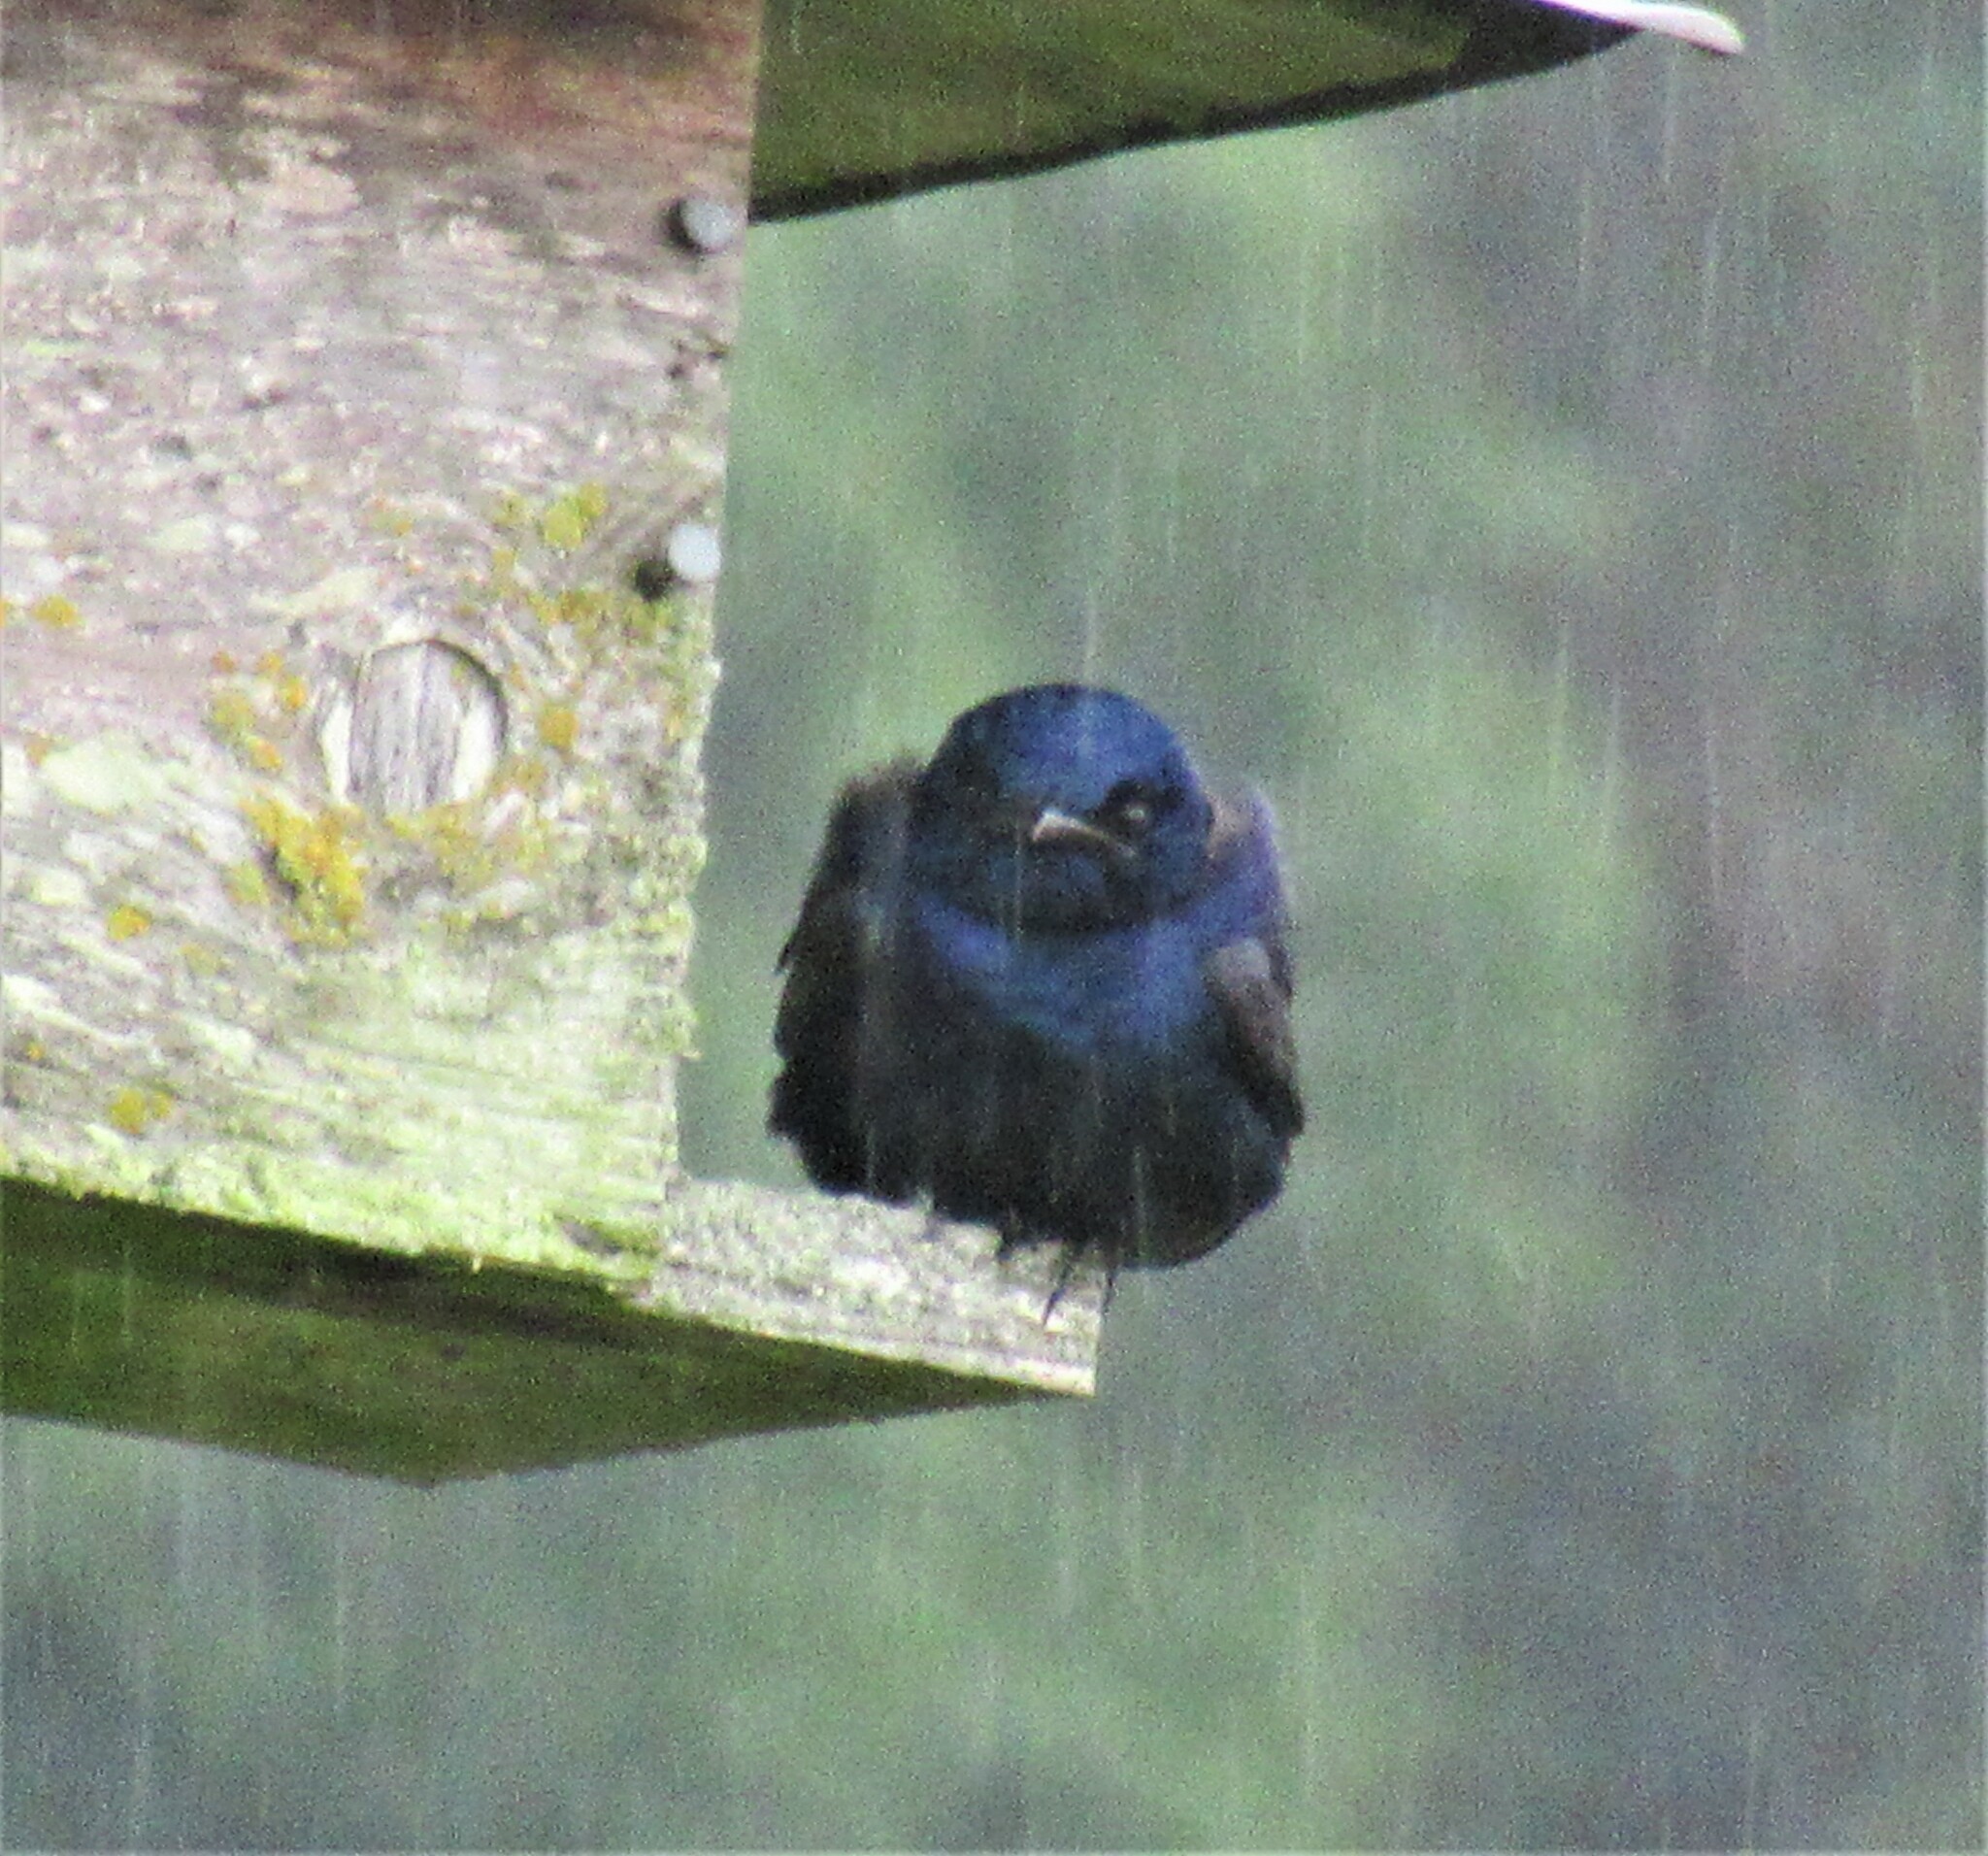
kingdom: Animalia
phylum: Chordata
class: Aves
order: Passeriformes
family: Hirundinidae
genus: Progne
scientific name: Progne subis
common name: Purple martin
